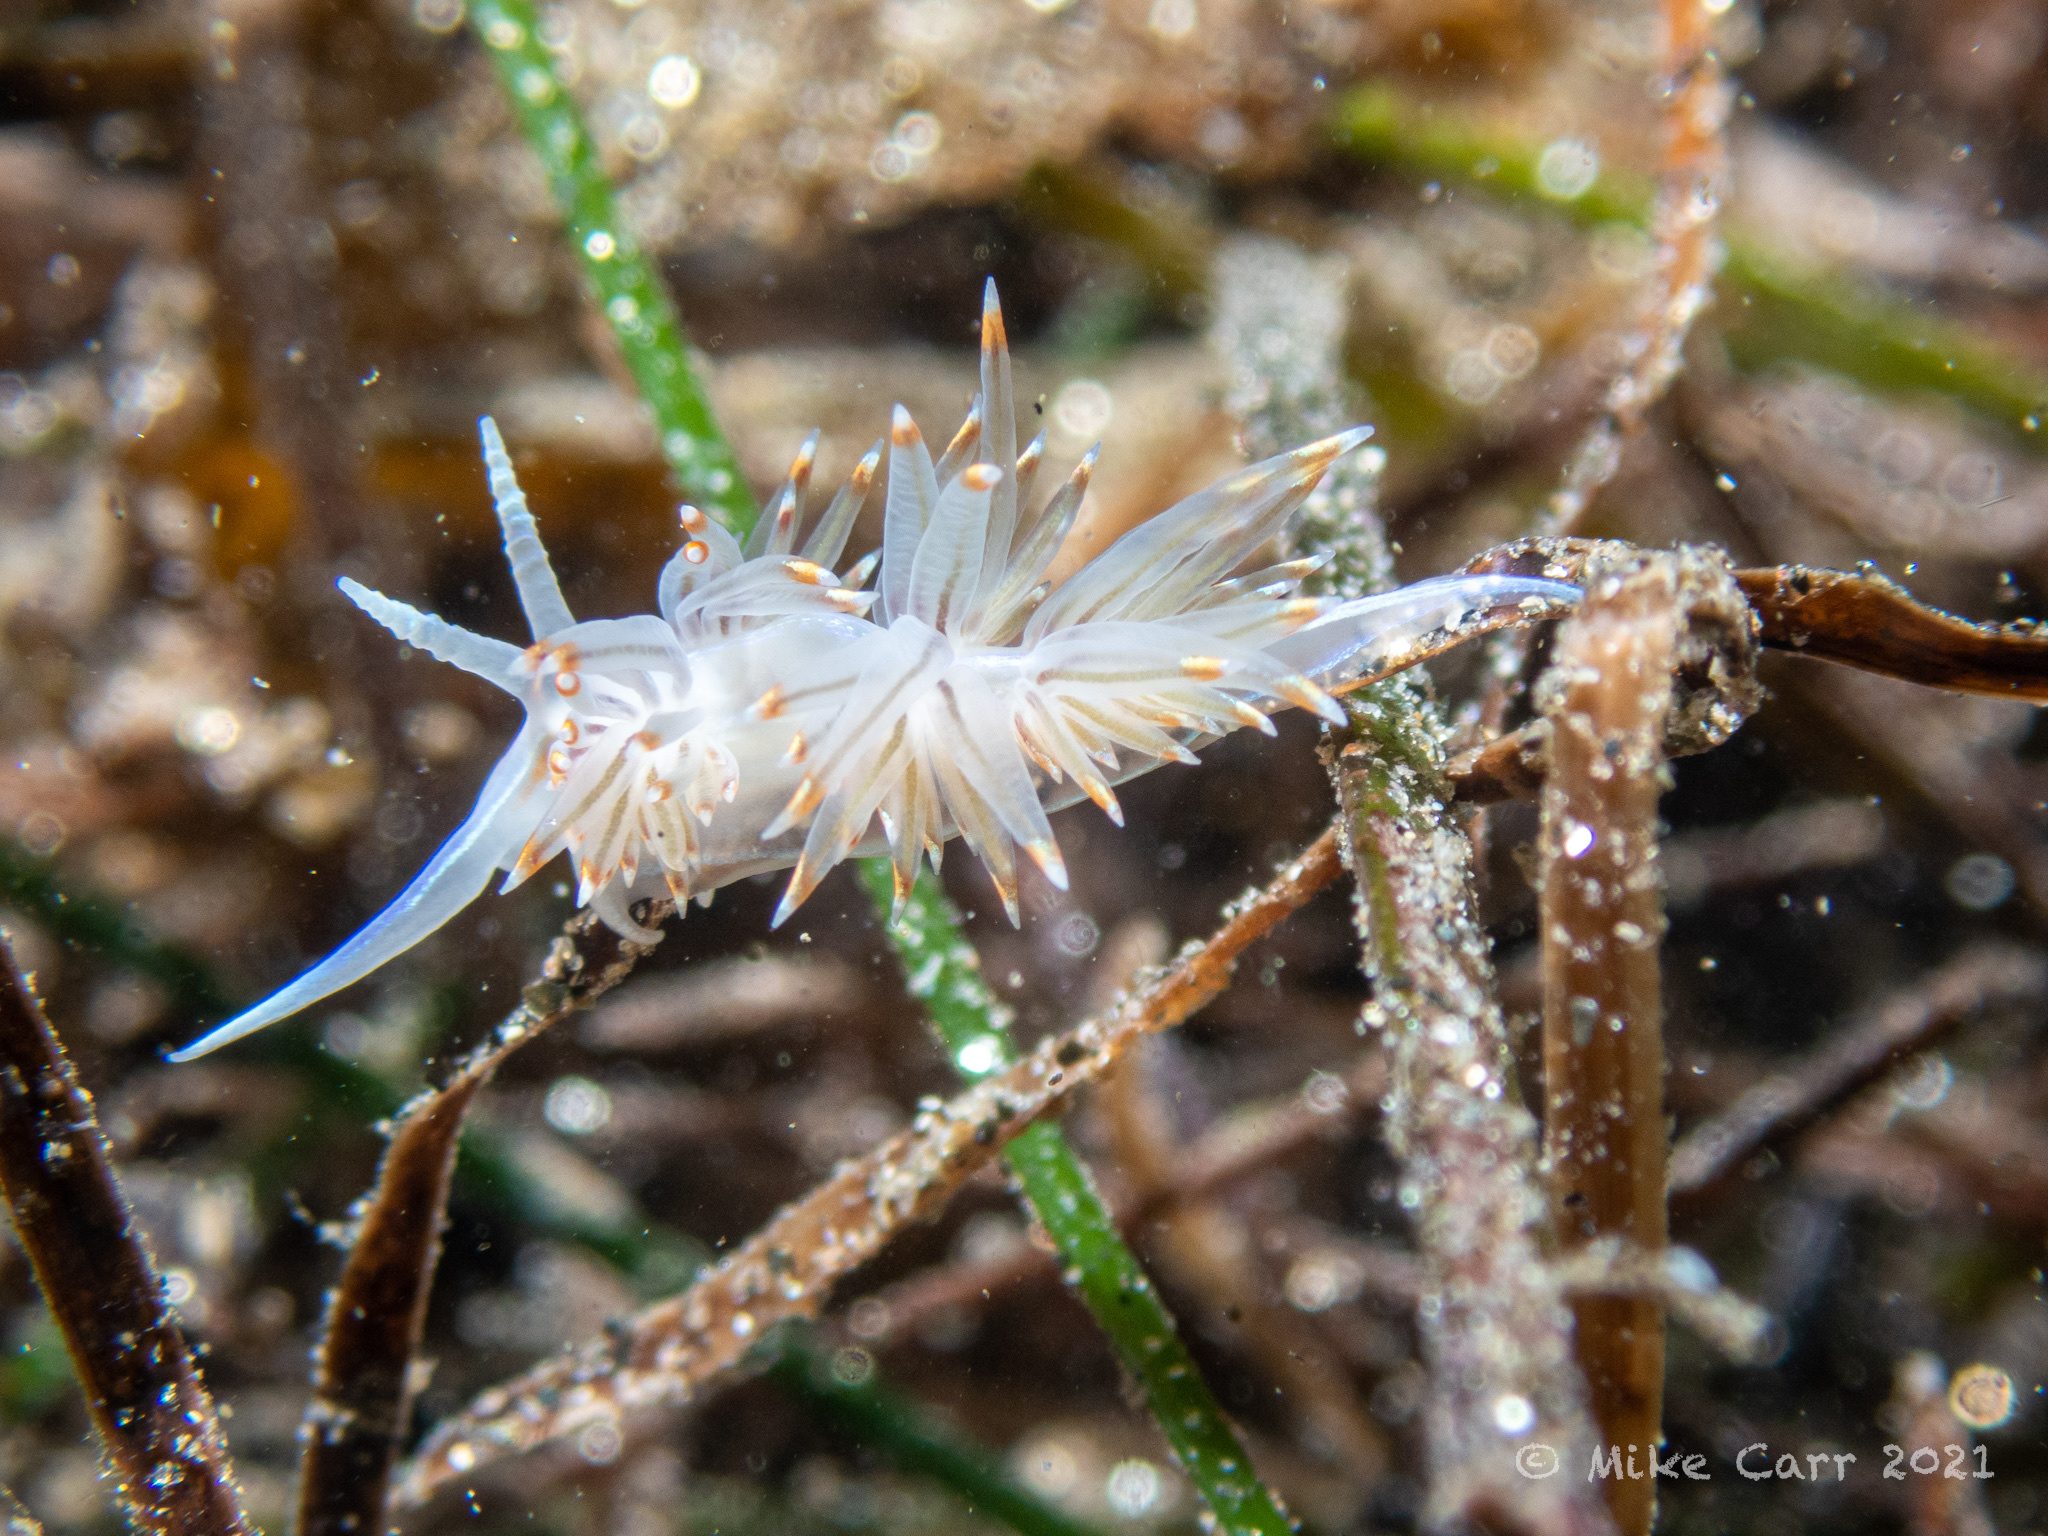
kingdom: Animalia
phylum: Mollusca
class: Gastropoda
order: Nudibranchia
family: Myrrhinidae
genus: Hermissenda
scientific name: Hermissenda opalescens
